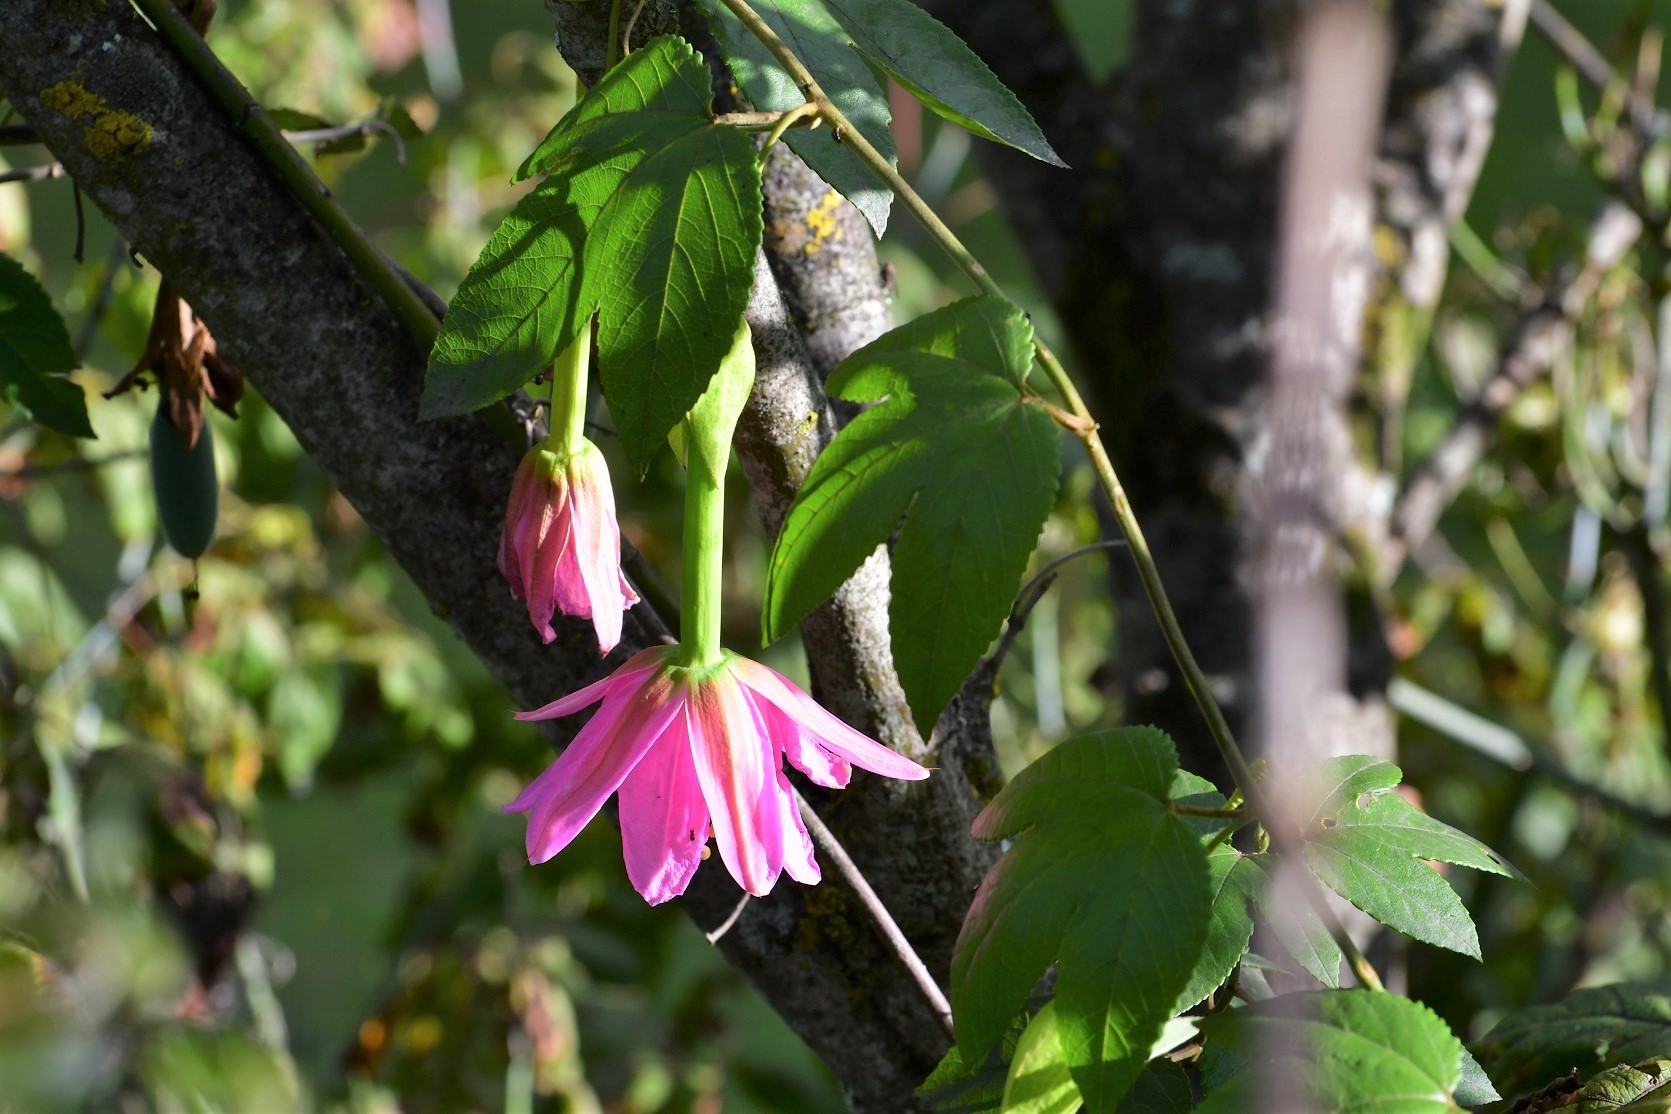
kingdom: Plantae
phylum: Tracheophyta
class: Magnoliopsida
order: Malpighiales
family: Passifloraceae
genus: Passiflora
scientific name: Passiflora tarminiana
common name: Banana poka
